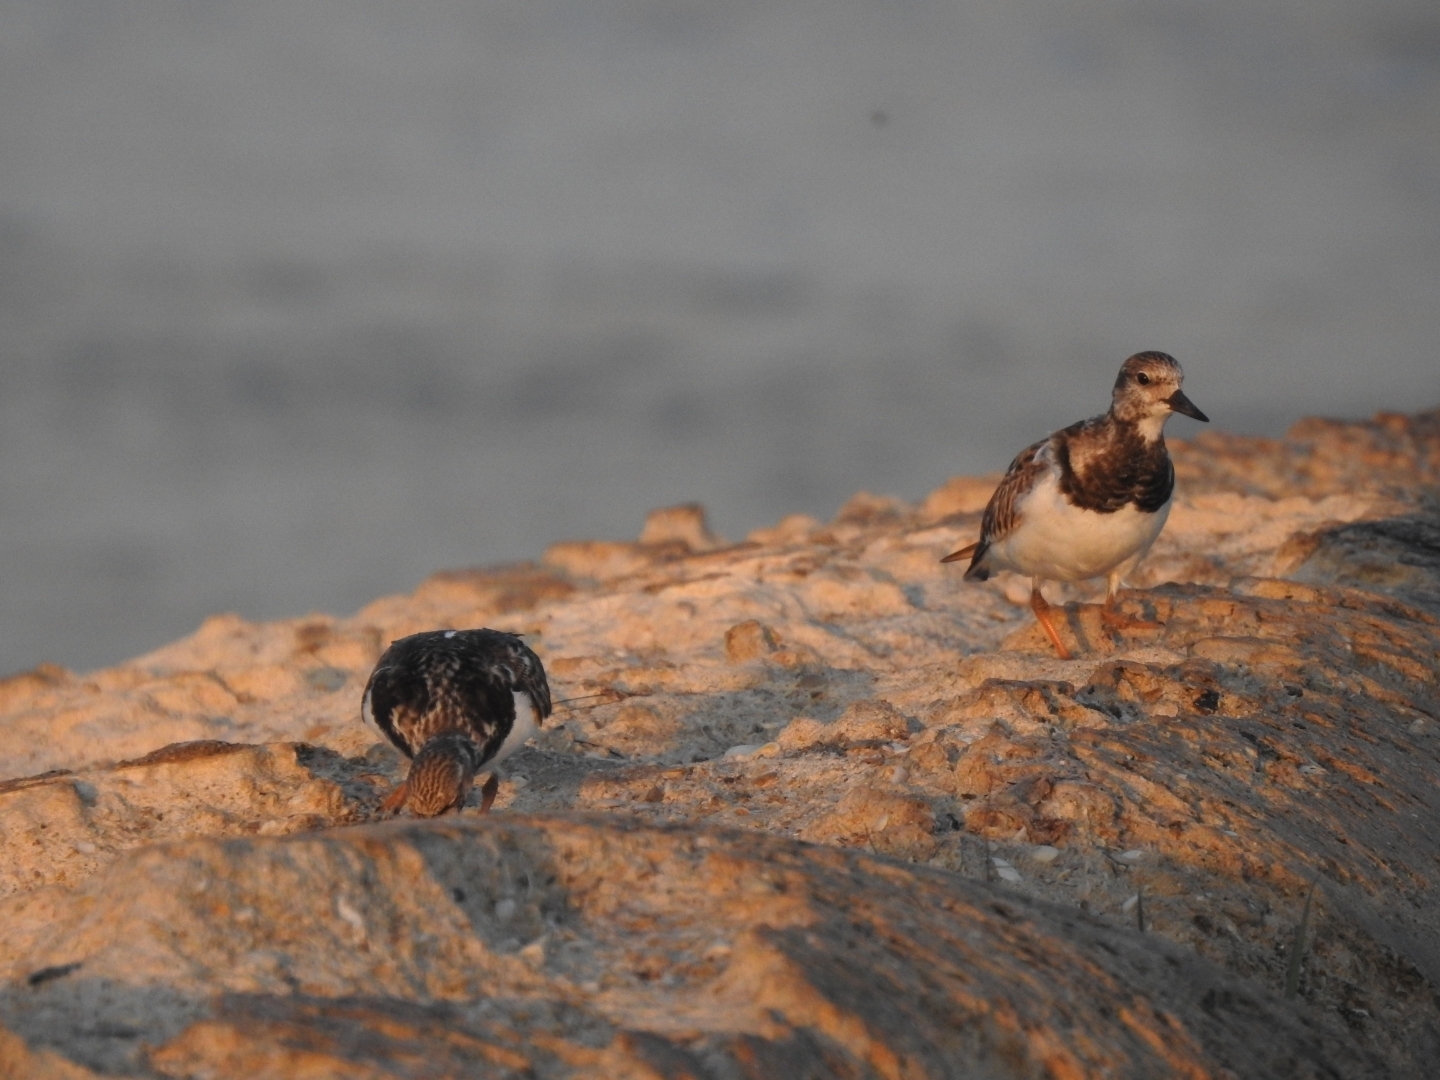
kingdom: Animalia
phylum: Chordata
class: Aves
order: Charadriiformes
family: Scolopacidae
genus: Arenaria
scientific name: Arenaria interpres
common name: Ruddy turnstone
